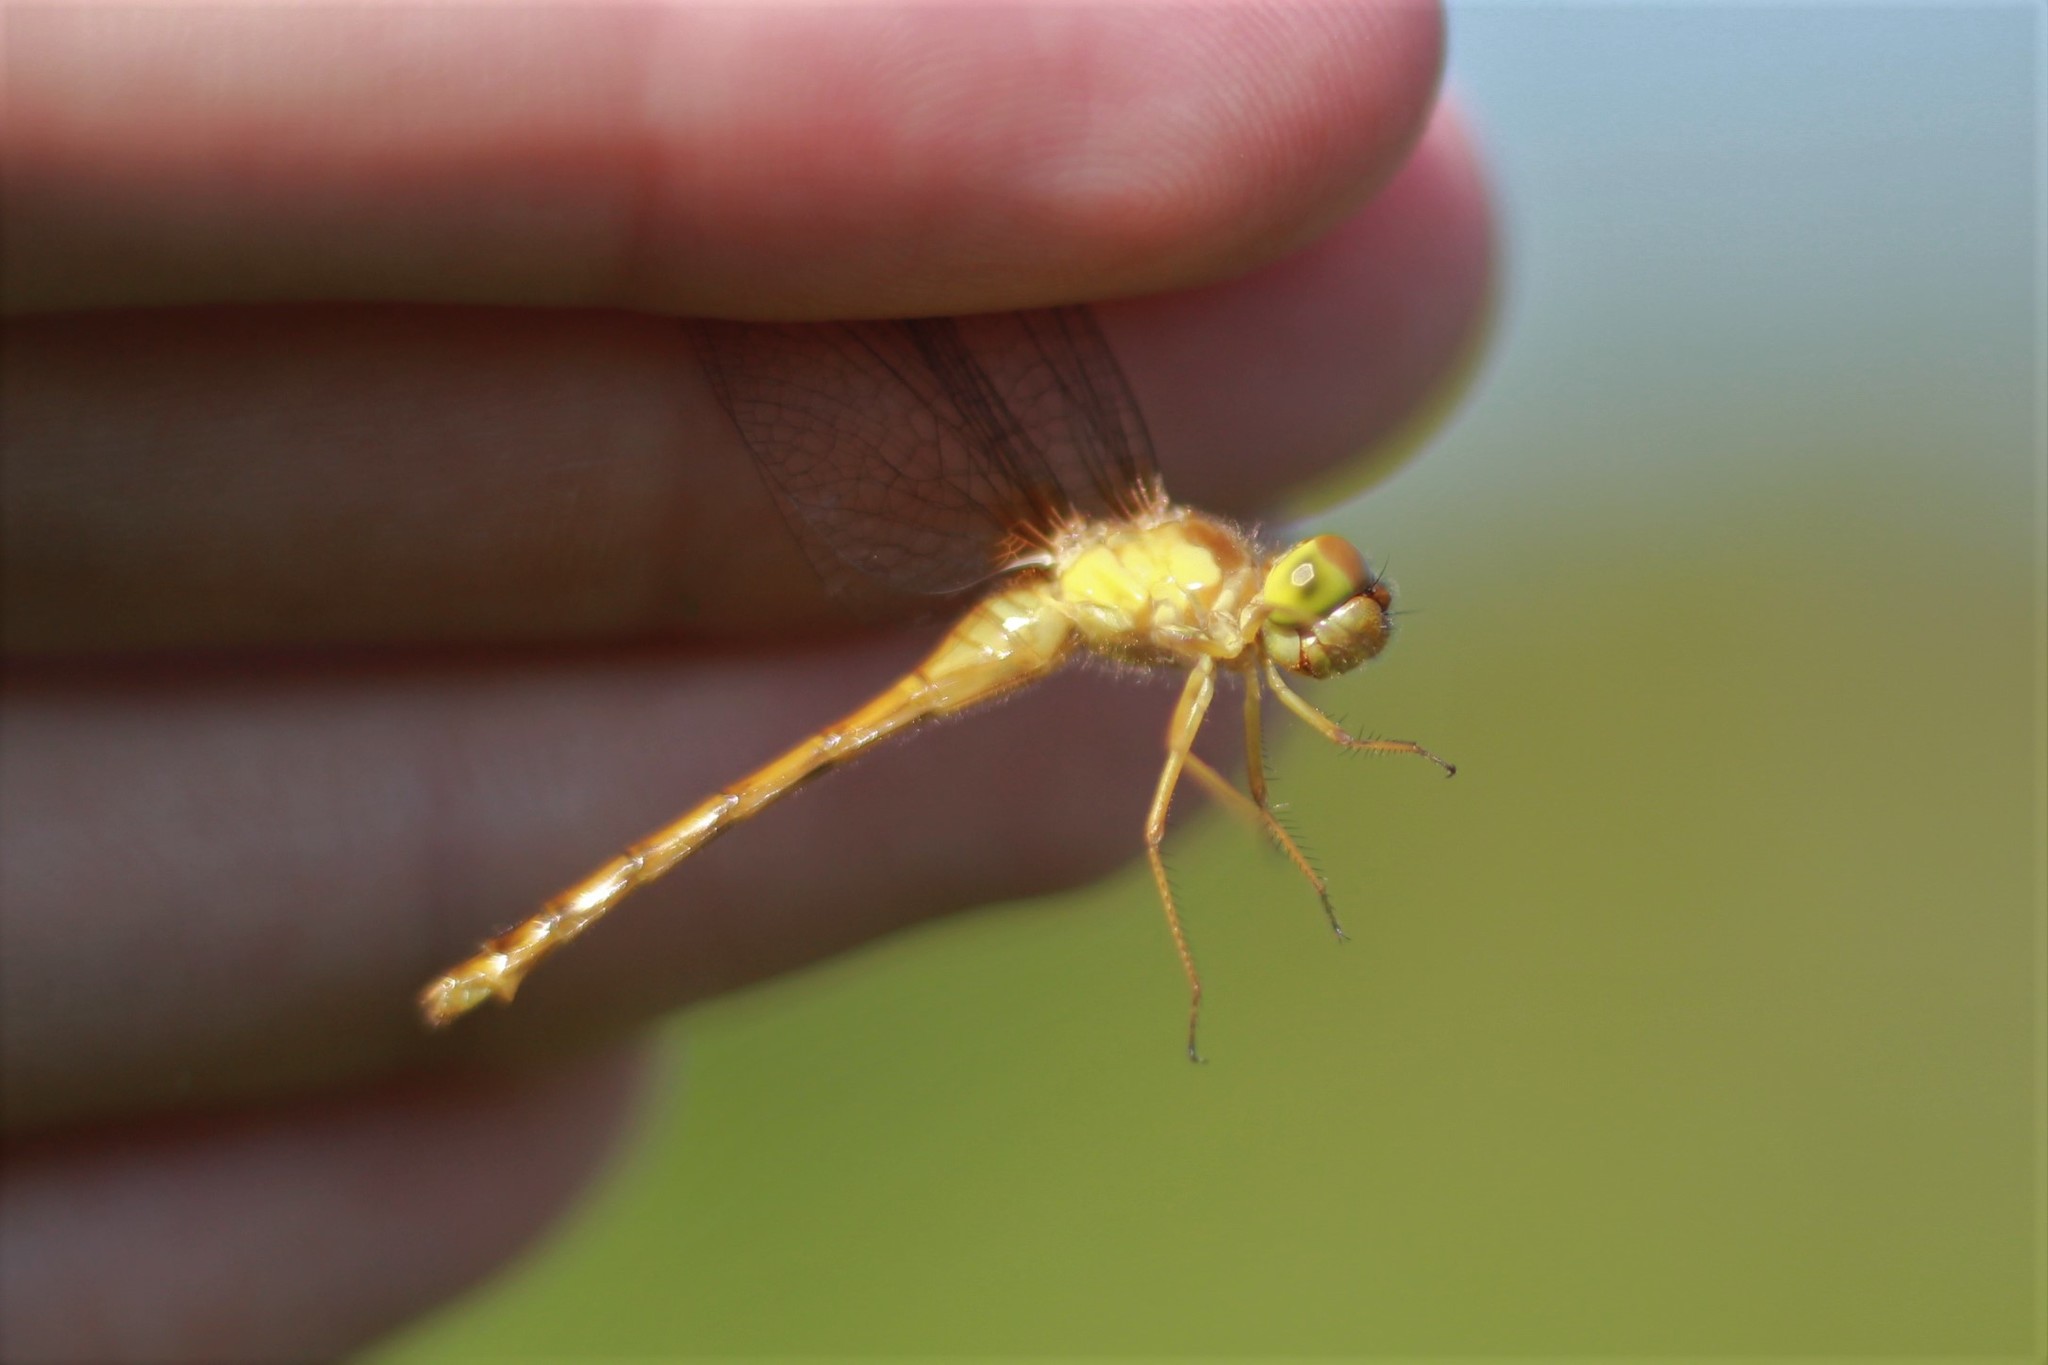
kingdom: Animalia
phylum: Arthropoda
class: Insecta
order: Odonata
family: Libellulidae
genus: Sympetrum
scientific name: Sympetrum vicinum
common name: Autumn meadowhawk
